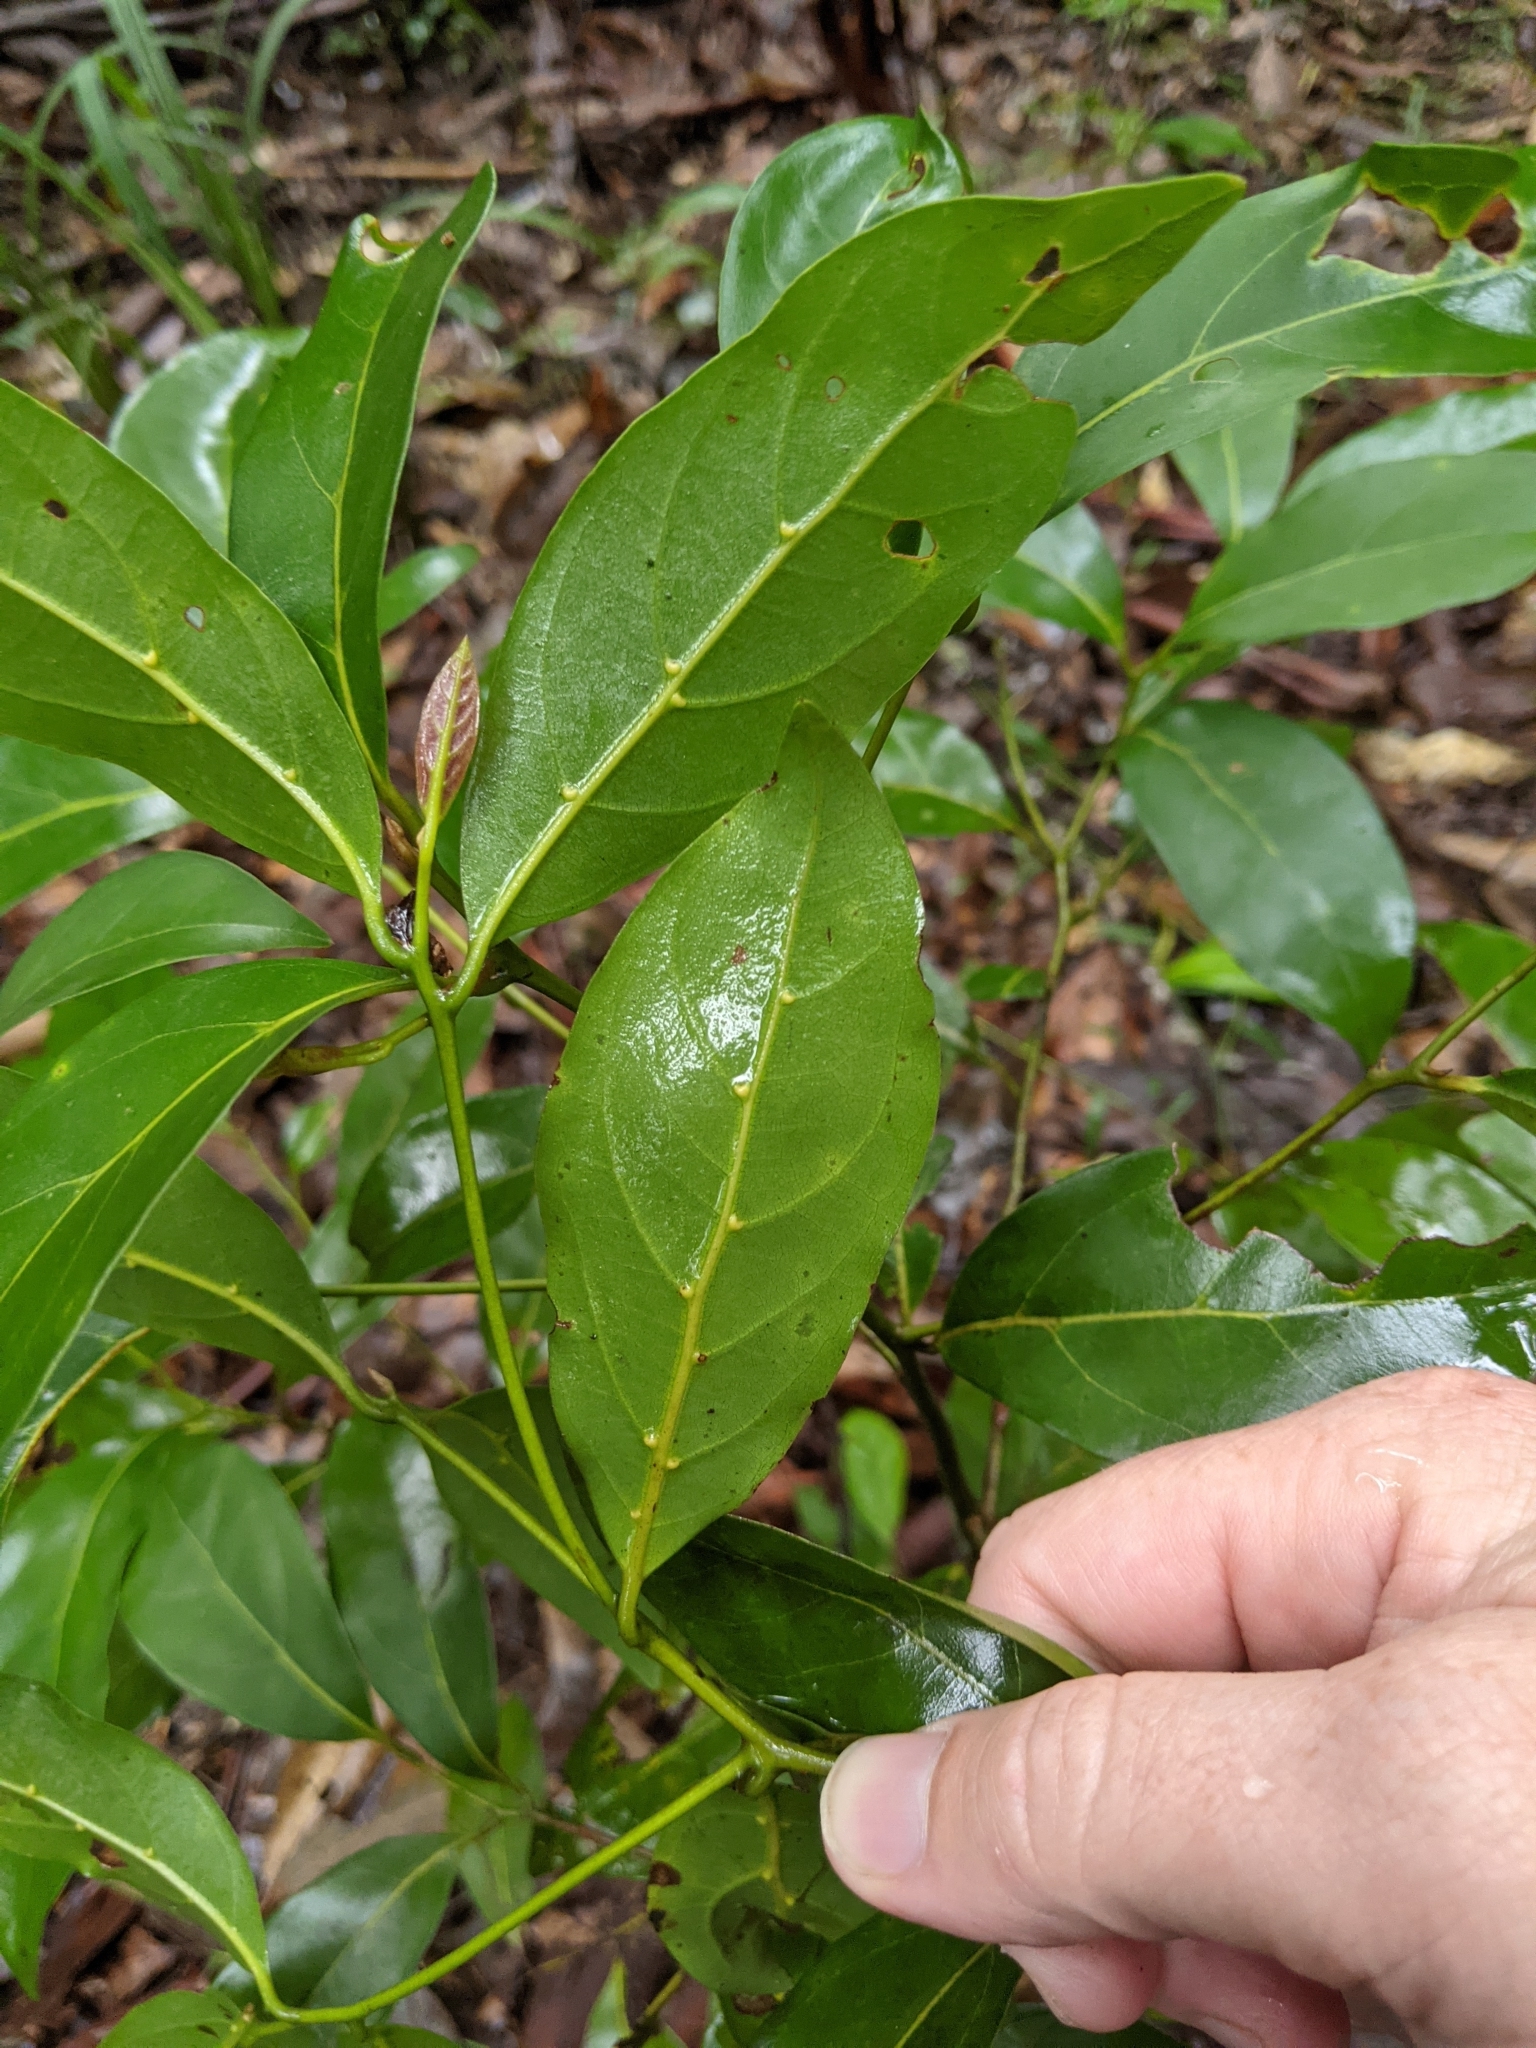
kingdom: Plantae
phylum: Tracheophyta
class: Magnoliopsida
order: Laurales
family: Lauraceae
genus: Endiandra
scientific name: Endiandra discolor
